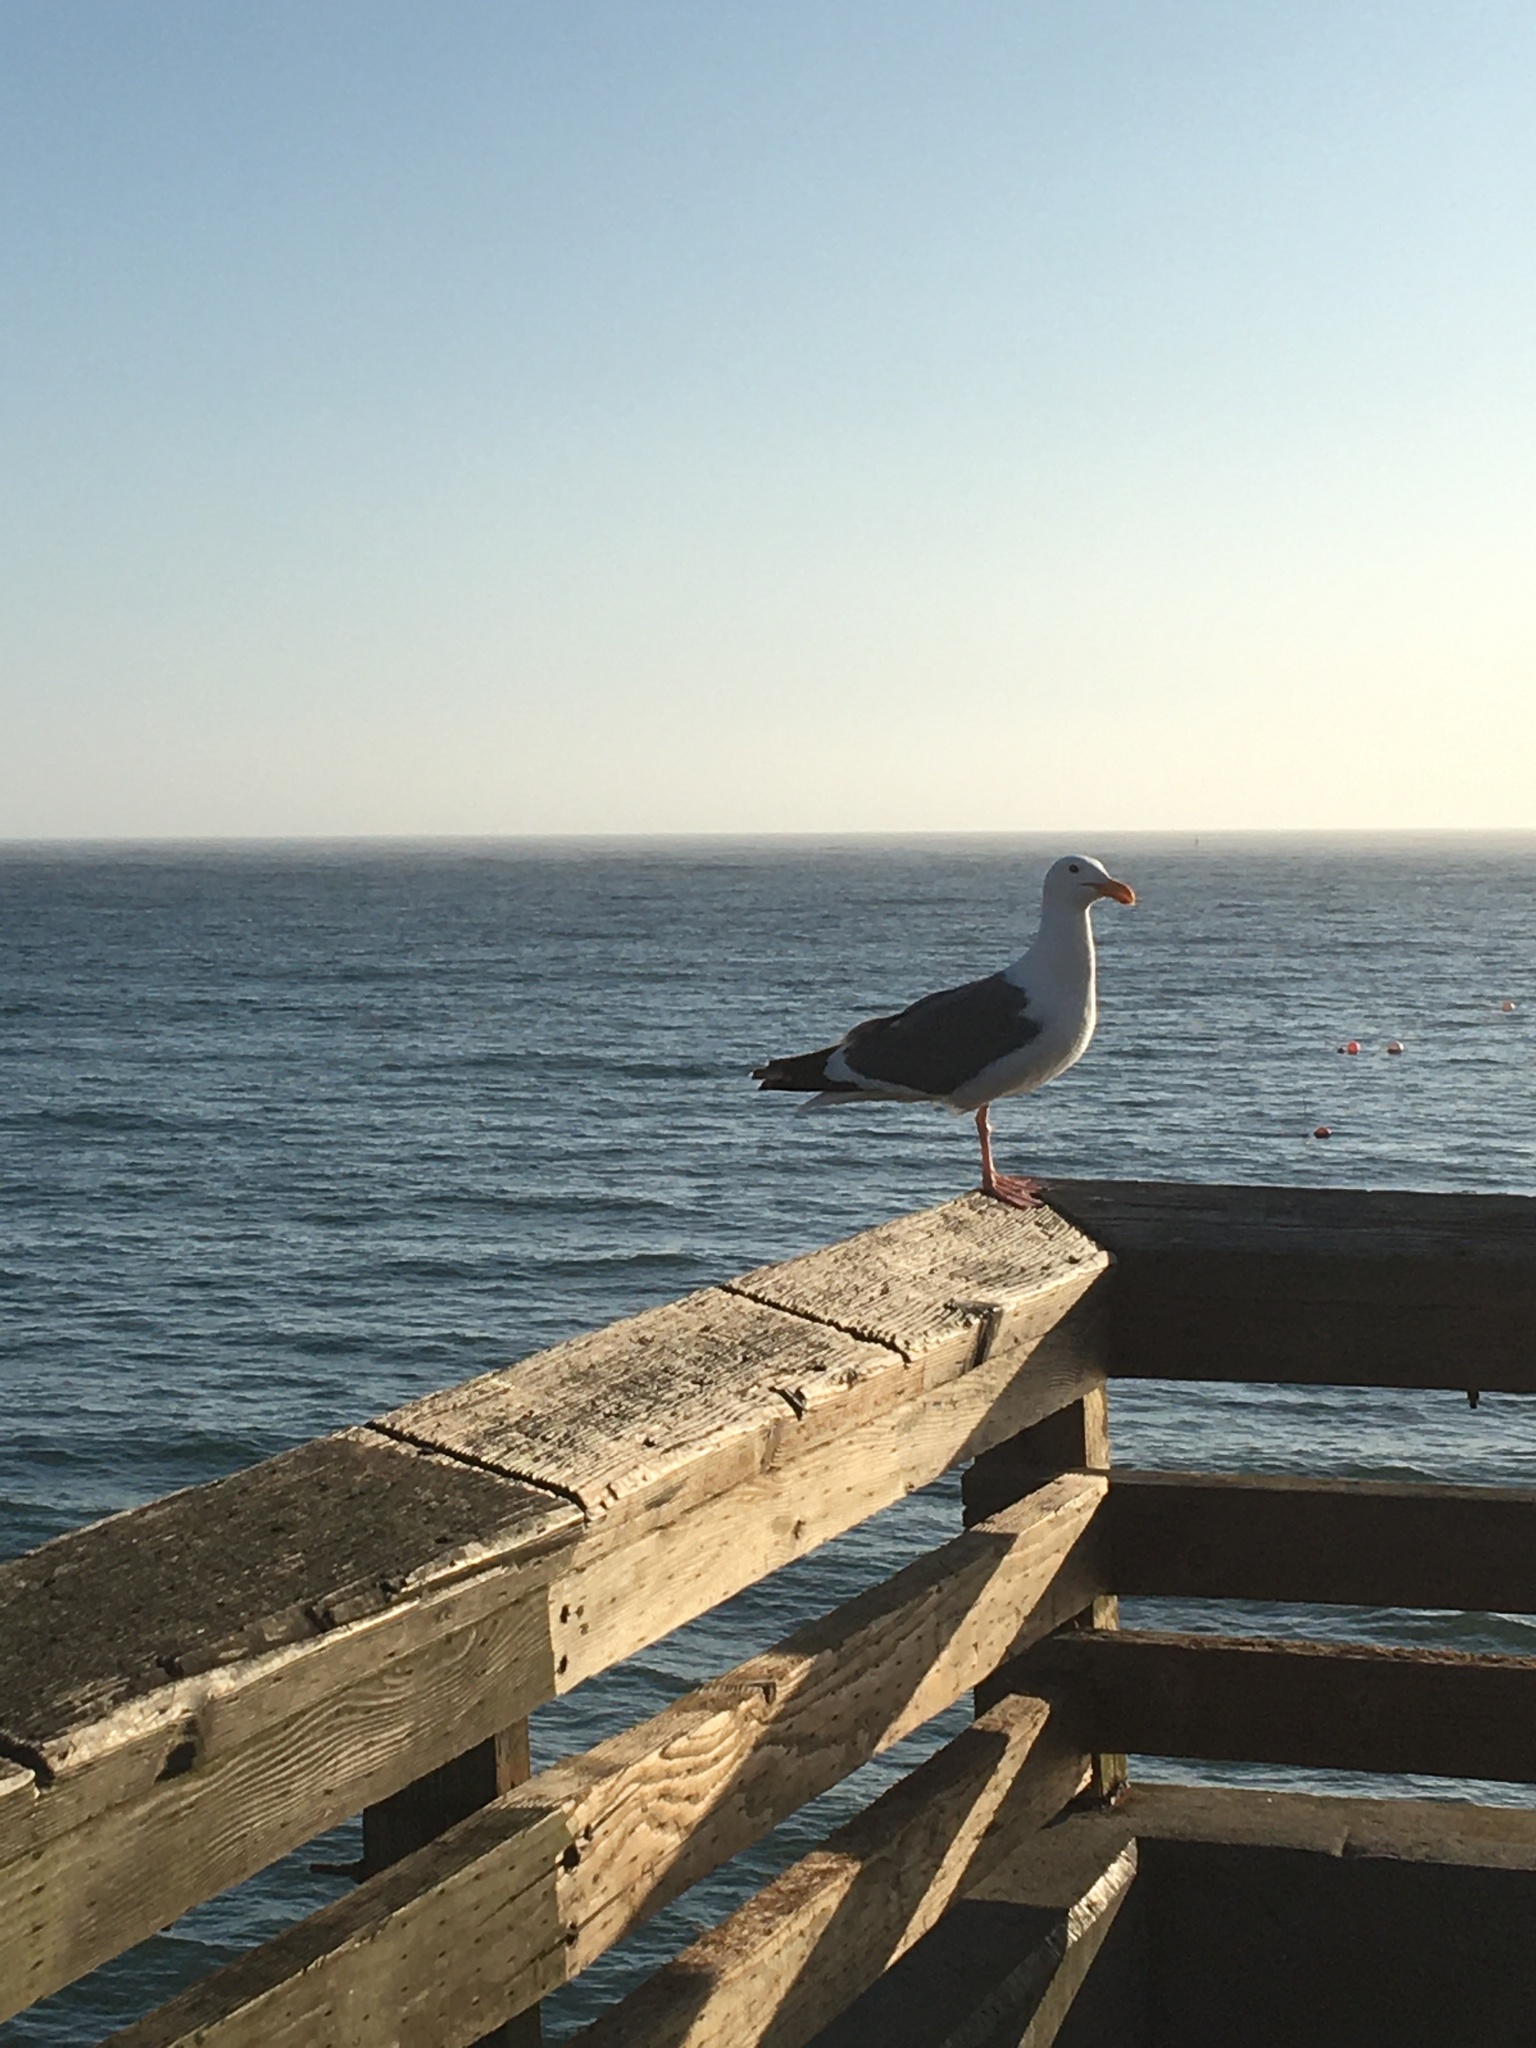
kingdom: Animalia
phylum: Chordata
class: Aves
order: Charadriiformes
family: Laridae
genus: Larus
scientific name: Larus occidentalis
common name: Western gull
